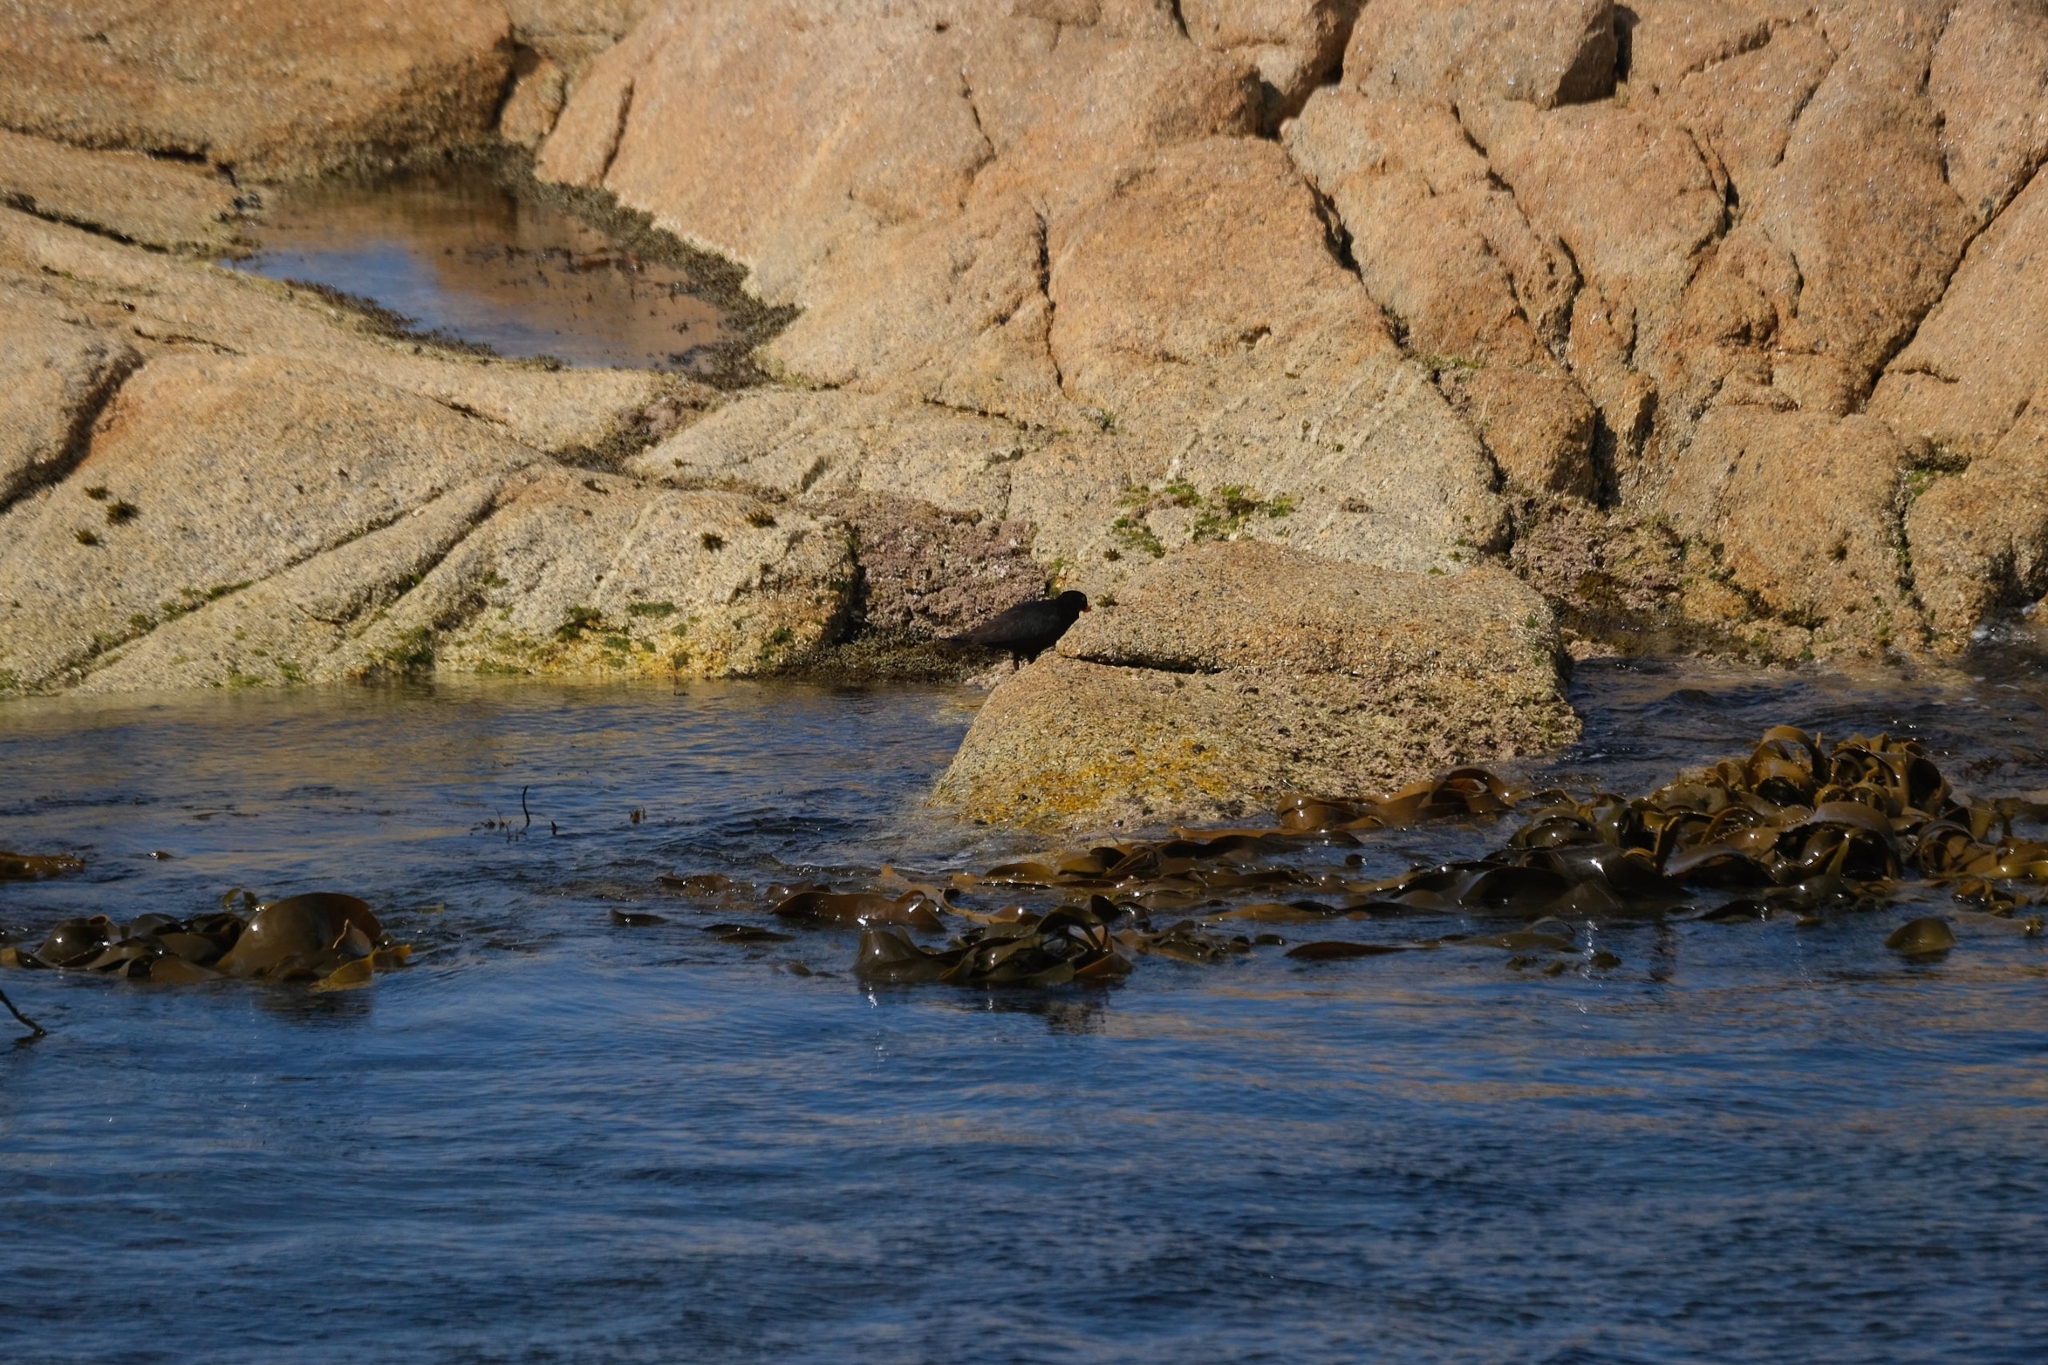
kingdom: Animalia
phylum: Chordata
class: Aves
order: Charadriiformes
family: Haematopodidae
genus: Haematopus
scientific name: Haematopus fuliginosus
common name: Sooty oystercatcher
